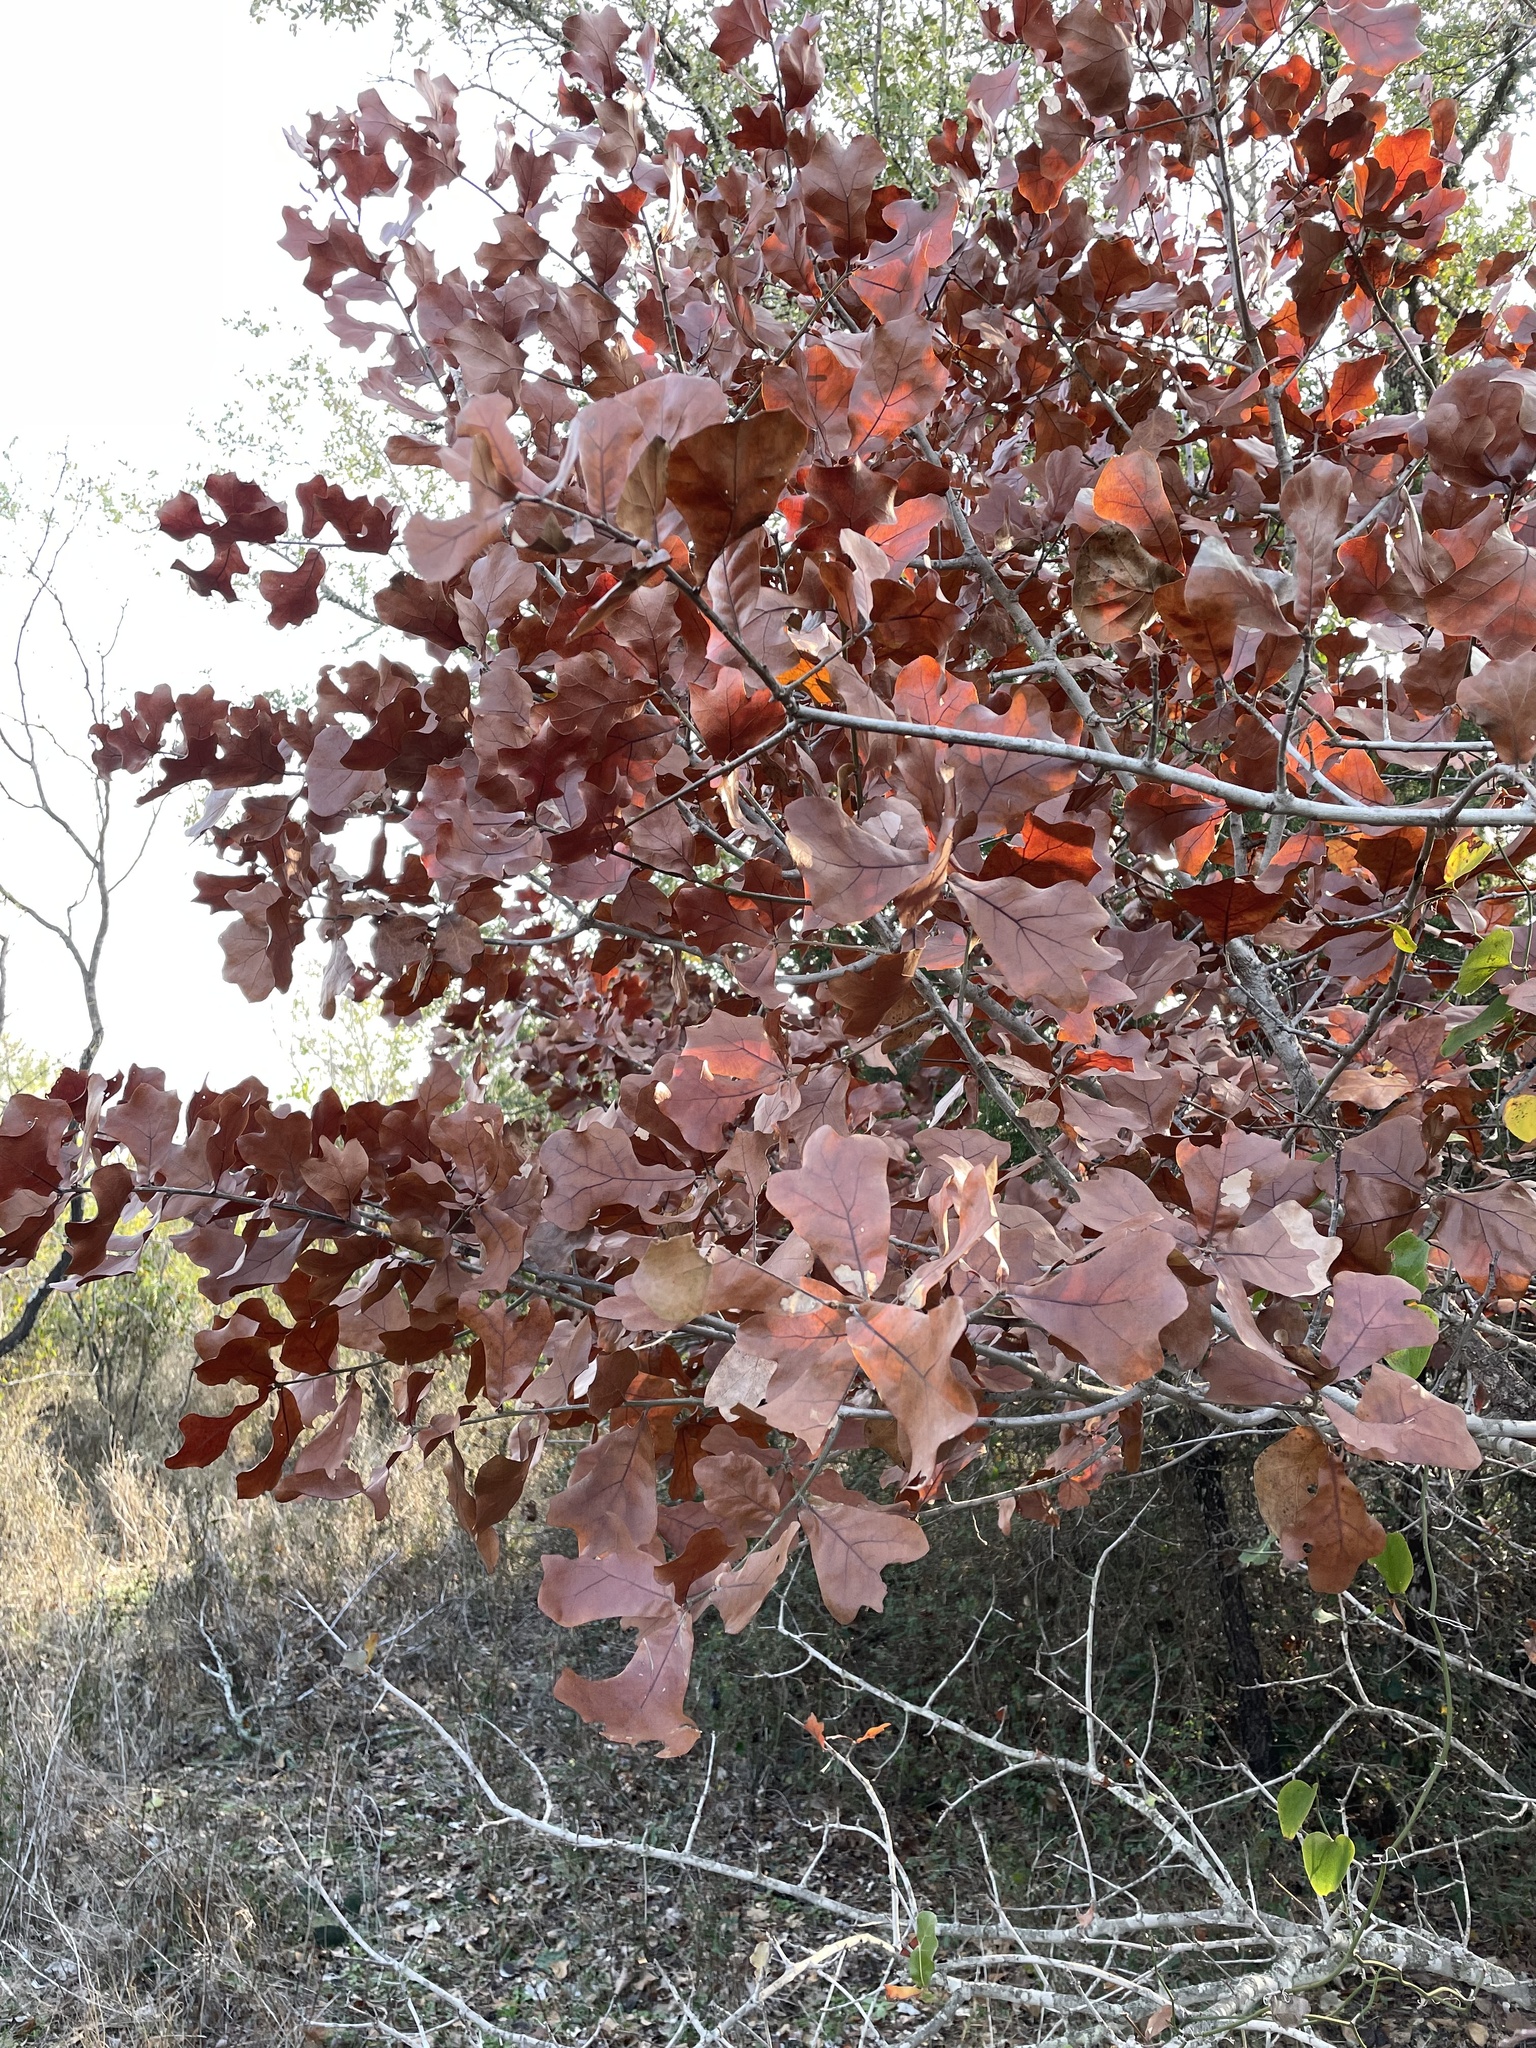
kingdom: Plantae
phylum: Tracheophyta
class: Magnoliopsida
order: Fagales
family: Fagaceae
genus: Quercus
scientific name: Quercus marilandica
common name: Blackjack oak
